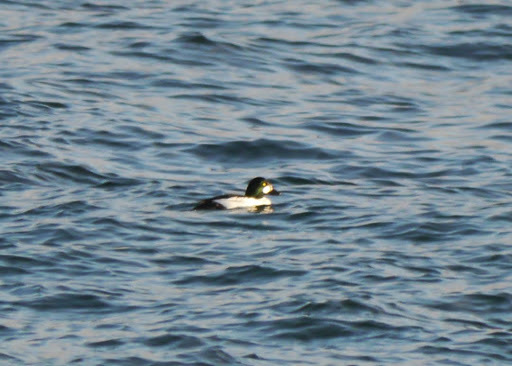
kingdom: Animalia
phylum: Chordata
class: Aves
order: Anseriformes
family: Anatidae
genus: Bucephala
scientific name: Bucephala clangula
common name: Common goldeneye
